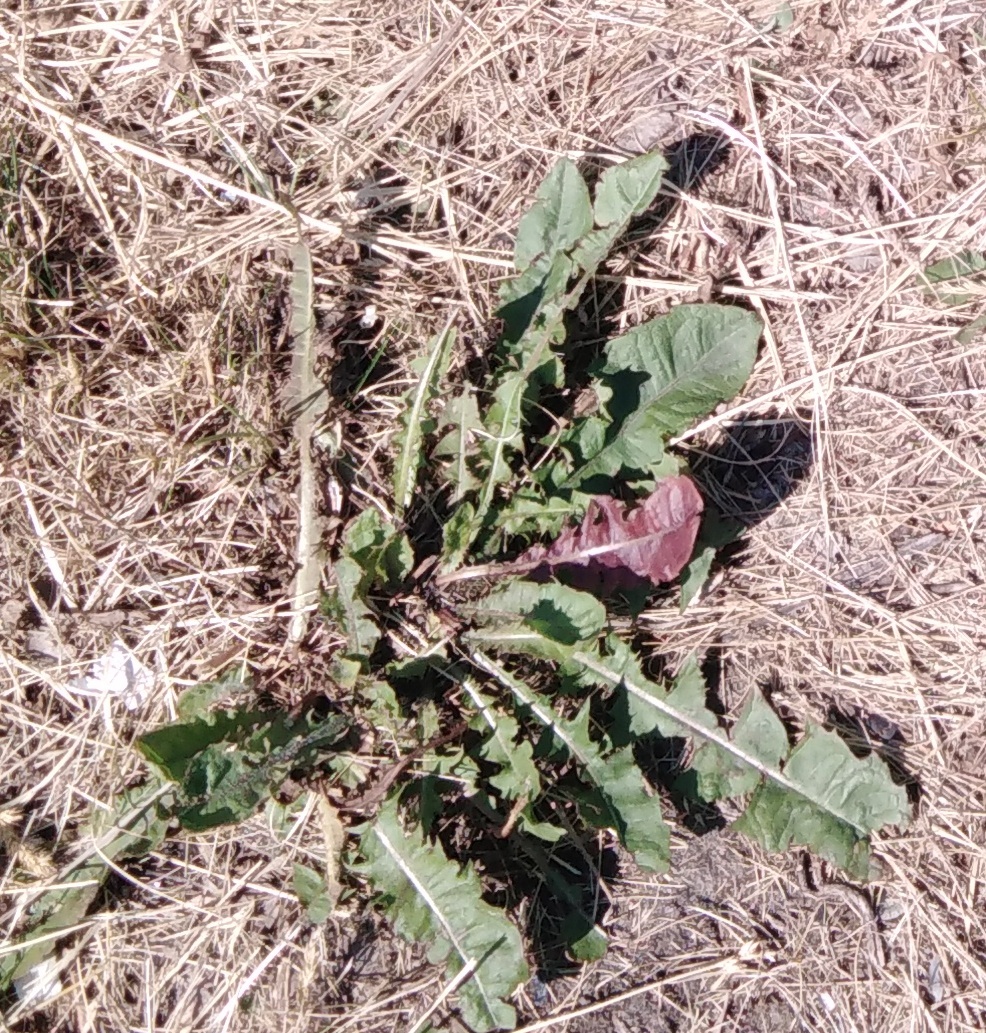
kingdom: Plantae
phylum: Tracheophyta
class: Magnoliopsida
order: Asterales
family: Asteraceae
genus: Taraxacum
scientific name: Taraxacum officinale
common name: Common dandelion
